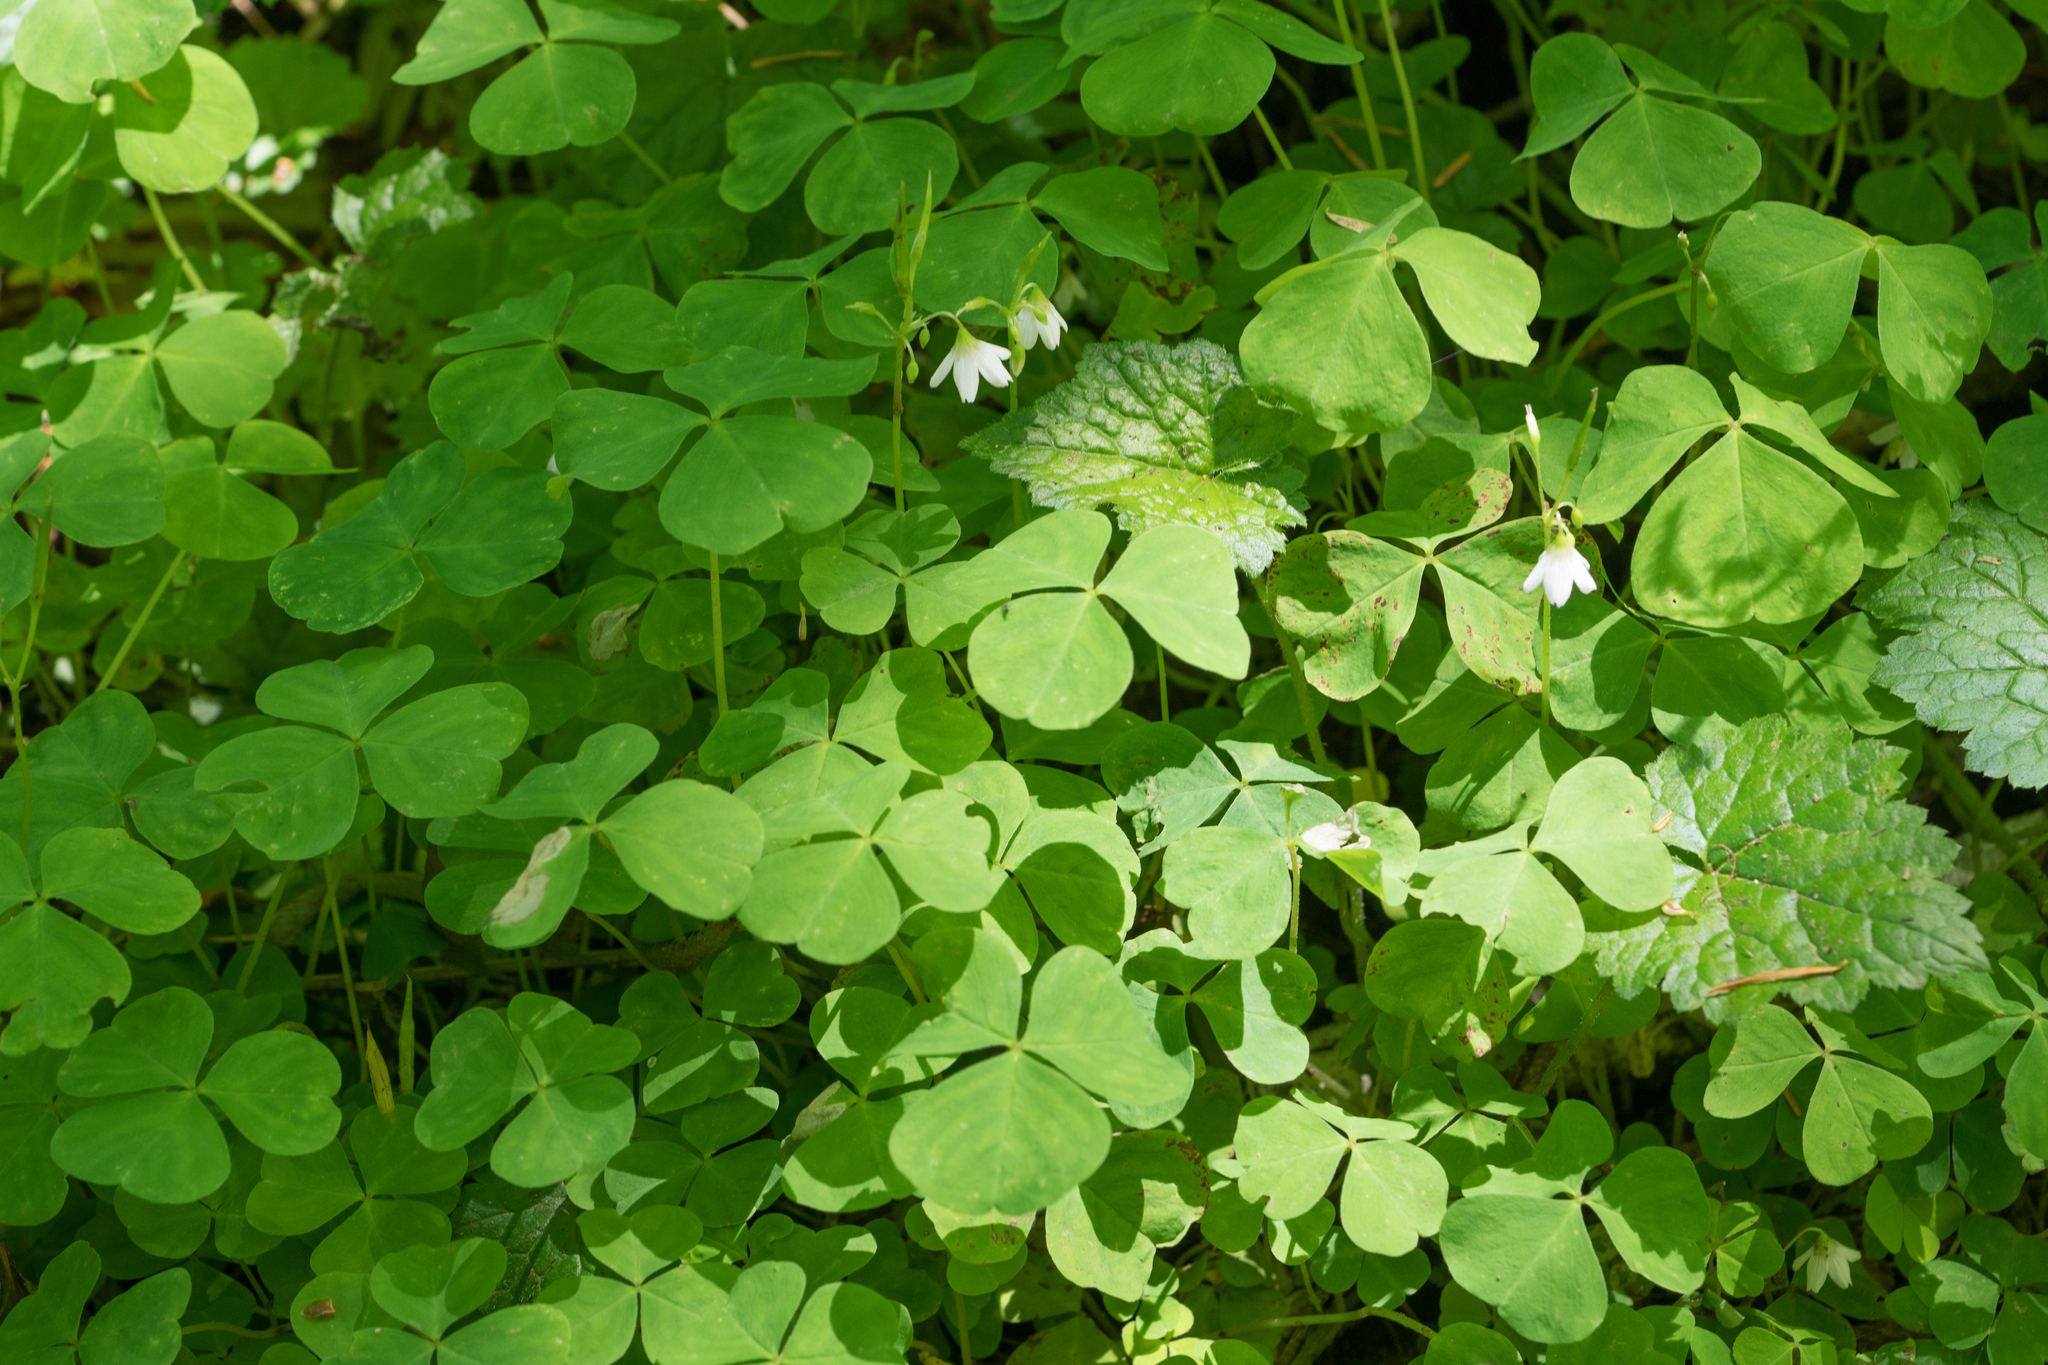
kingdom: Plantae
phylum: Tracheophyta
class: Magnoliopsida
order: Oxalidales
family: Oxalidaceae
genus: Oxalis
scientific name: Oxalis trilliifolia
